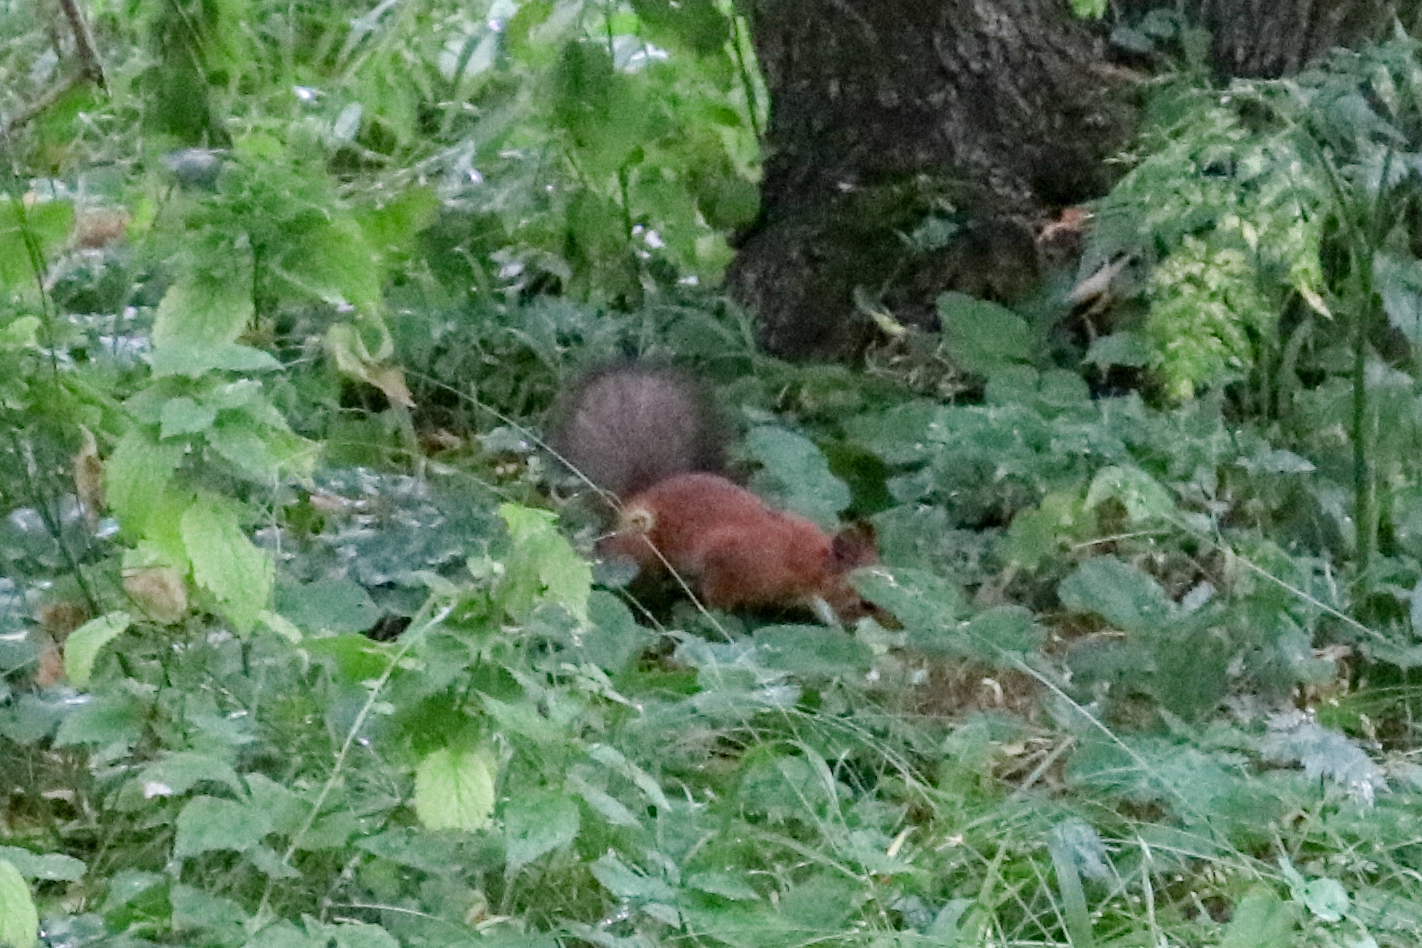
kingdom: Animalia
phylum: Chordata
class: Mammalia
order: Rodentia
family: Sciuridae
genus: Sciurus
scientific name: Sciurus vulgaris
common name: Eurasian red squirrel
